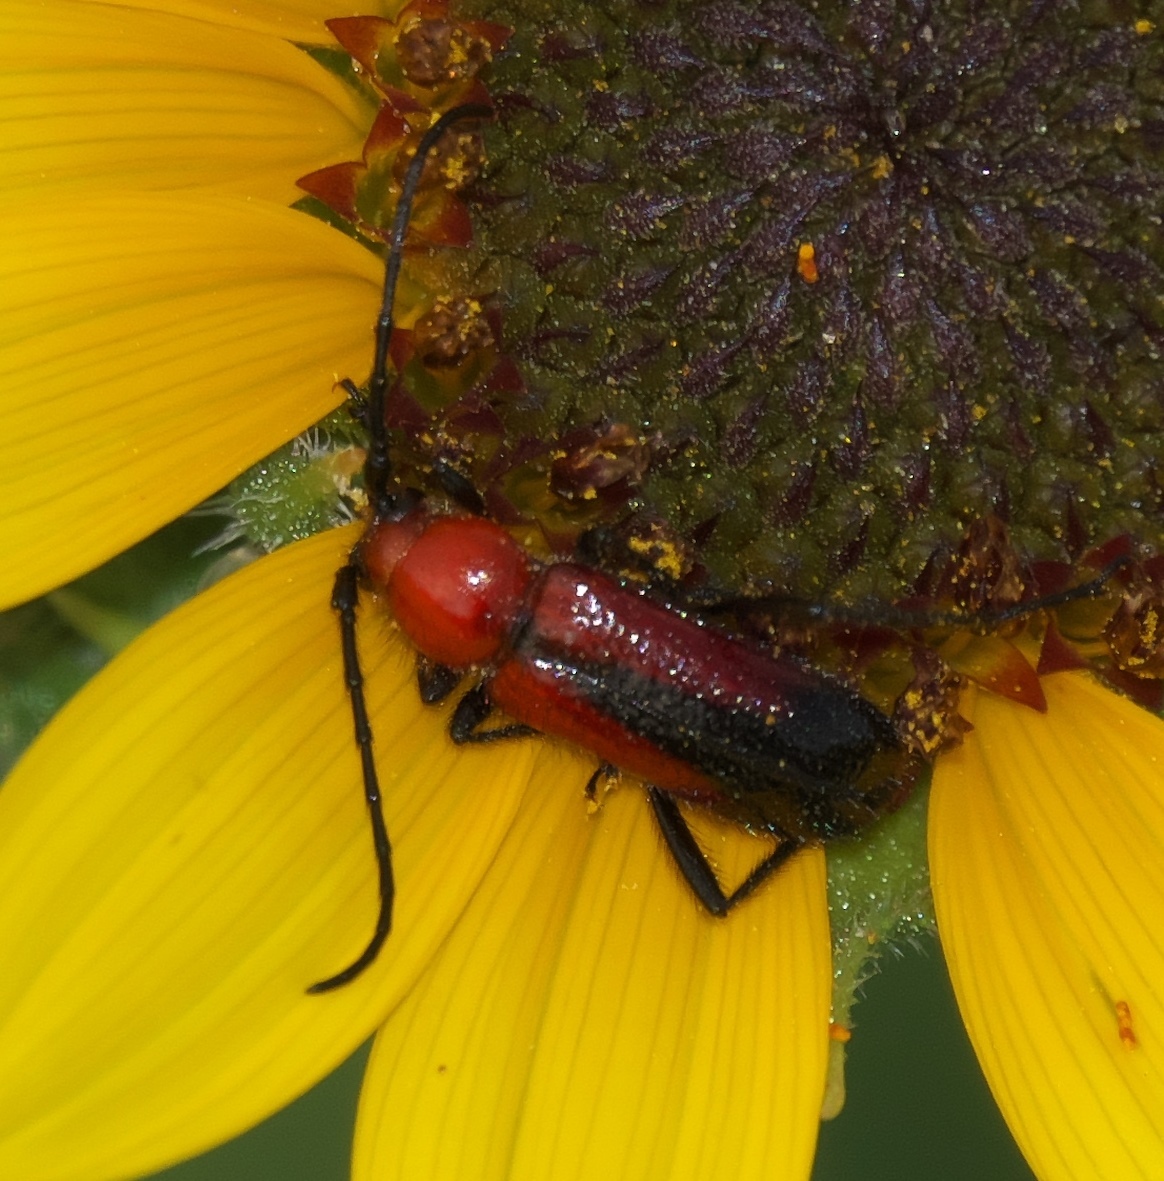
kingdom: Animalia
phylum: Arthropoda
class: Insecta
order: Coleoptera
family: Cerambycidae
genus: Batyle
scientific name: Batyle suturalis
